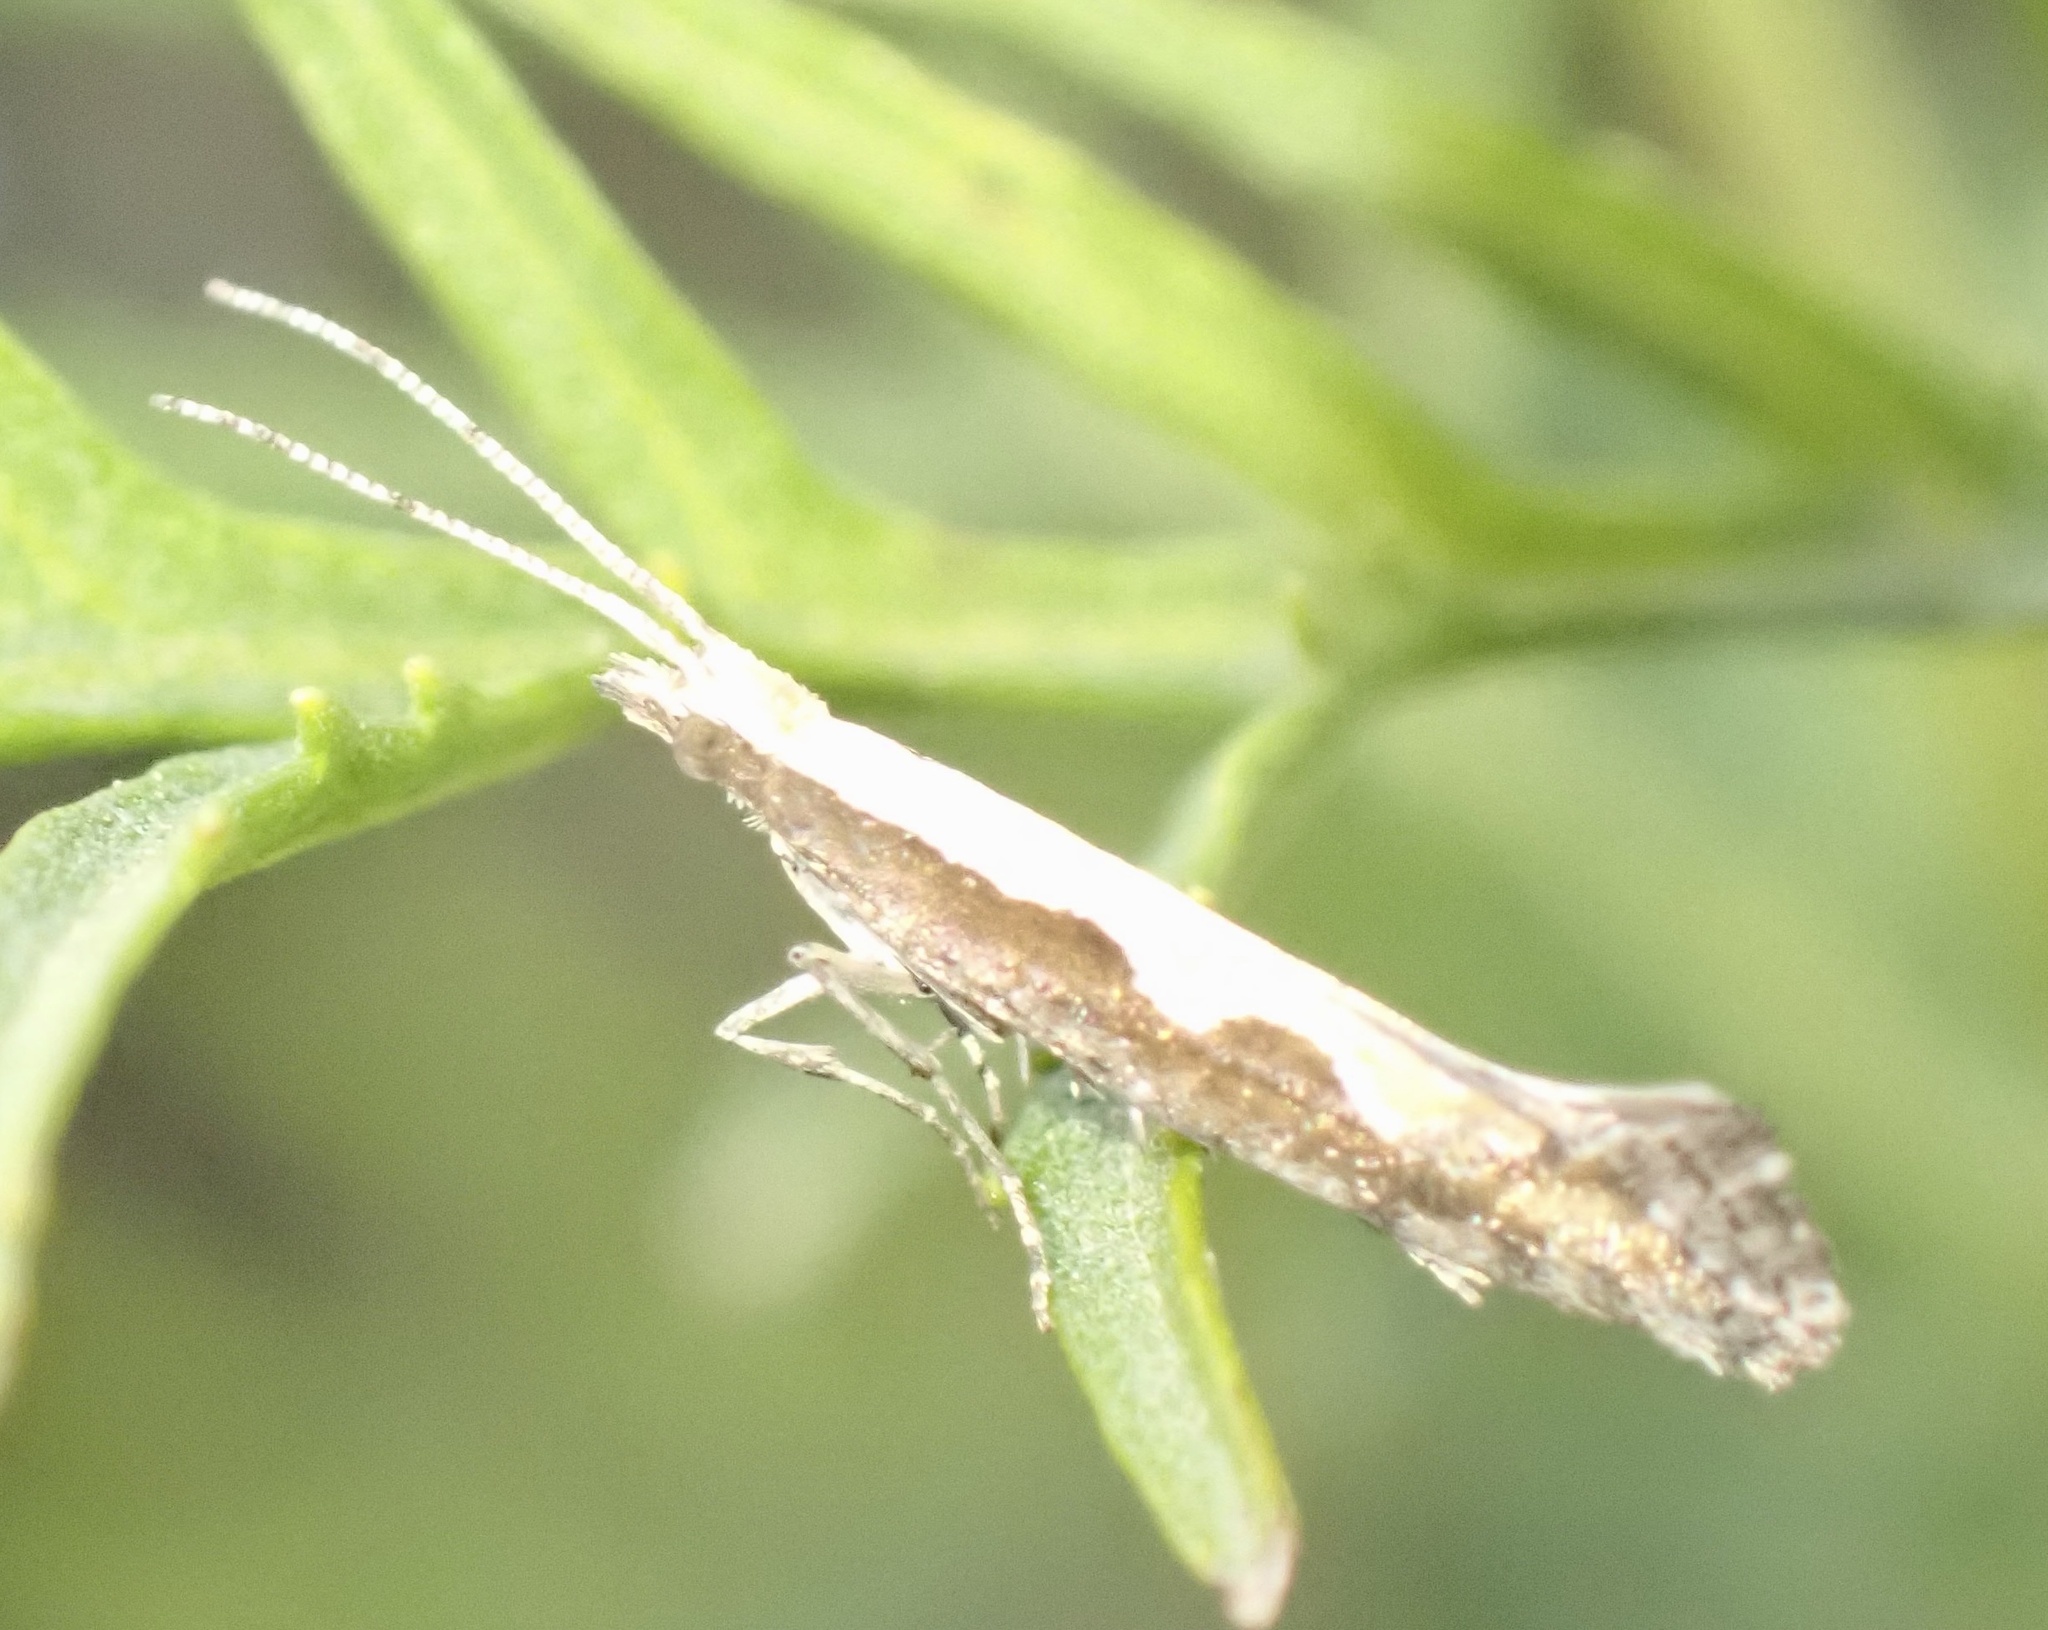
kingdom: Animalia
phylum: Arthropoda
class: Insecta
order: Lepidoptera
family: Plutellidae
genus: Plutella
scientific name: Plutella xylostella
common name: Diamond-back moth
